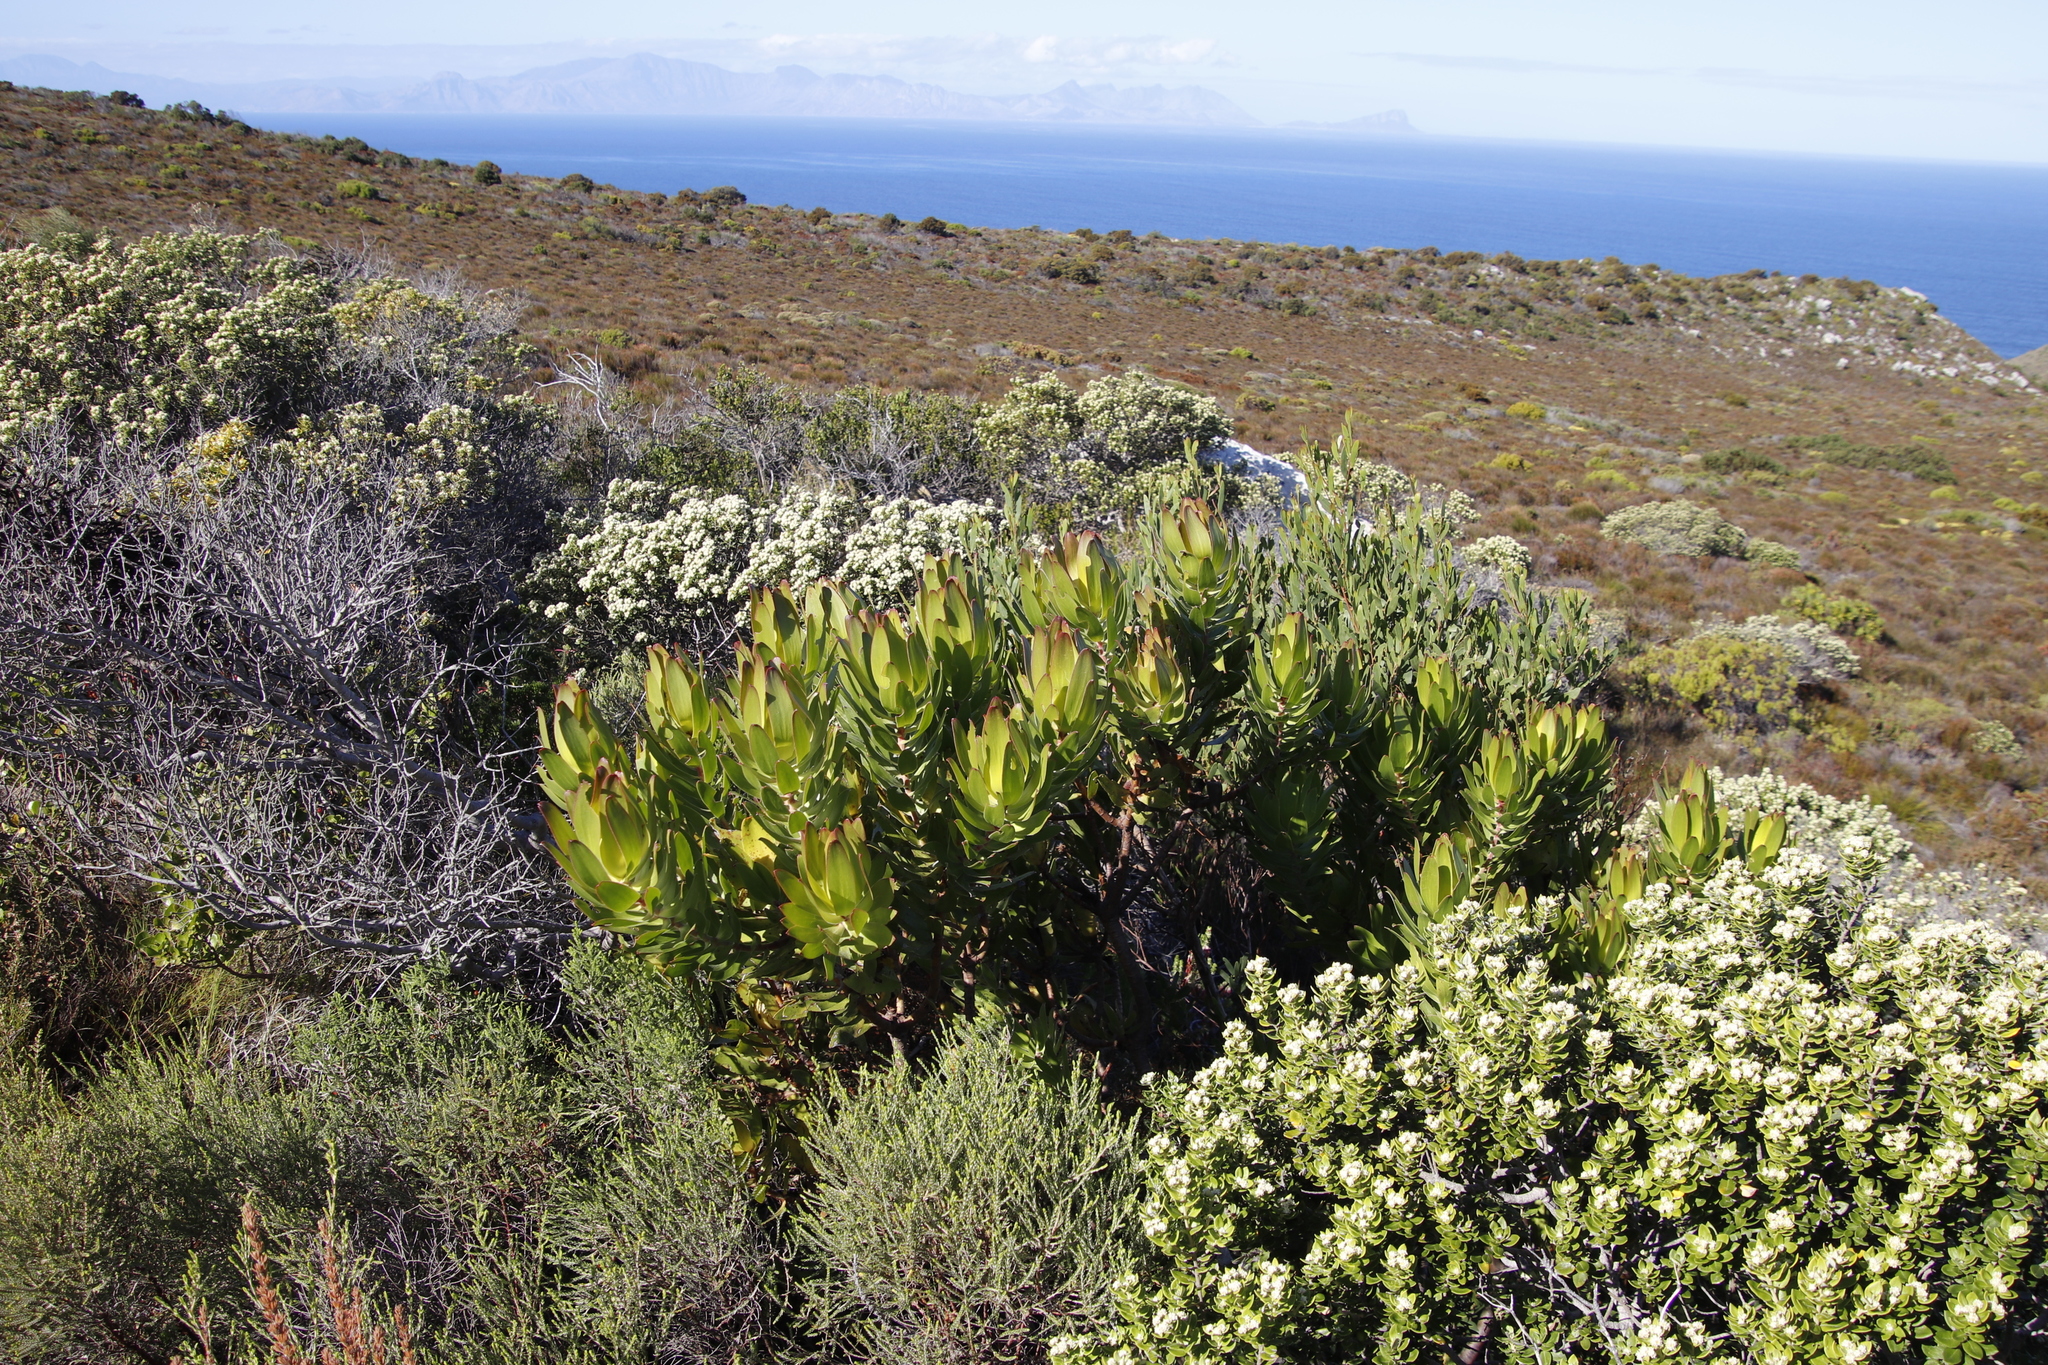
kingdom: Plantae
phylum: Tracheophyta
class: Magnoliopsida
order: Proteales
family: Proteaceae
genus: Leucadendron
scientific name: Leucadendron laureolum
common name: Golden sunshinebush
